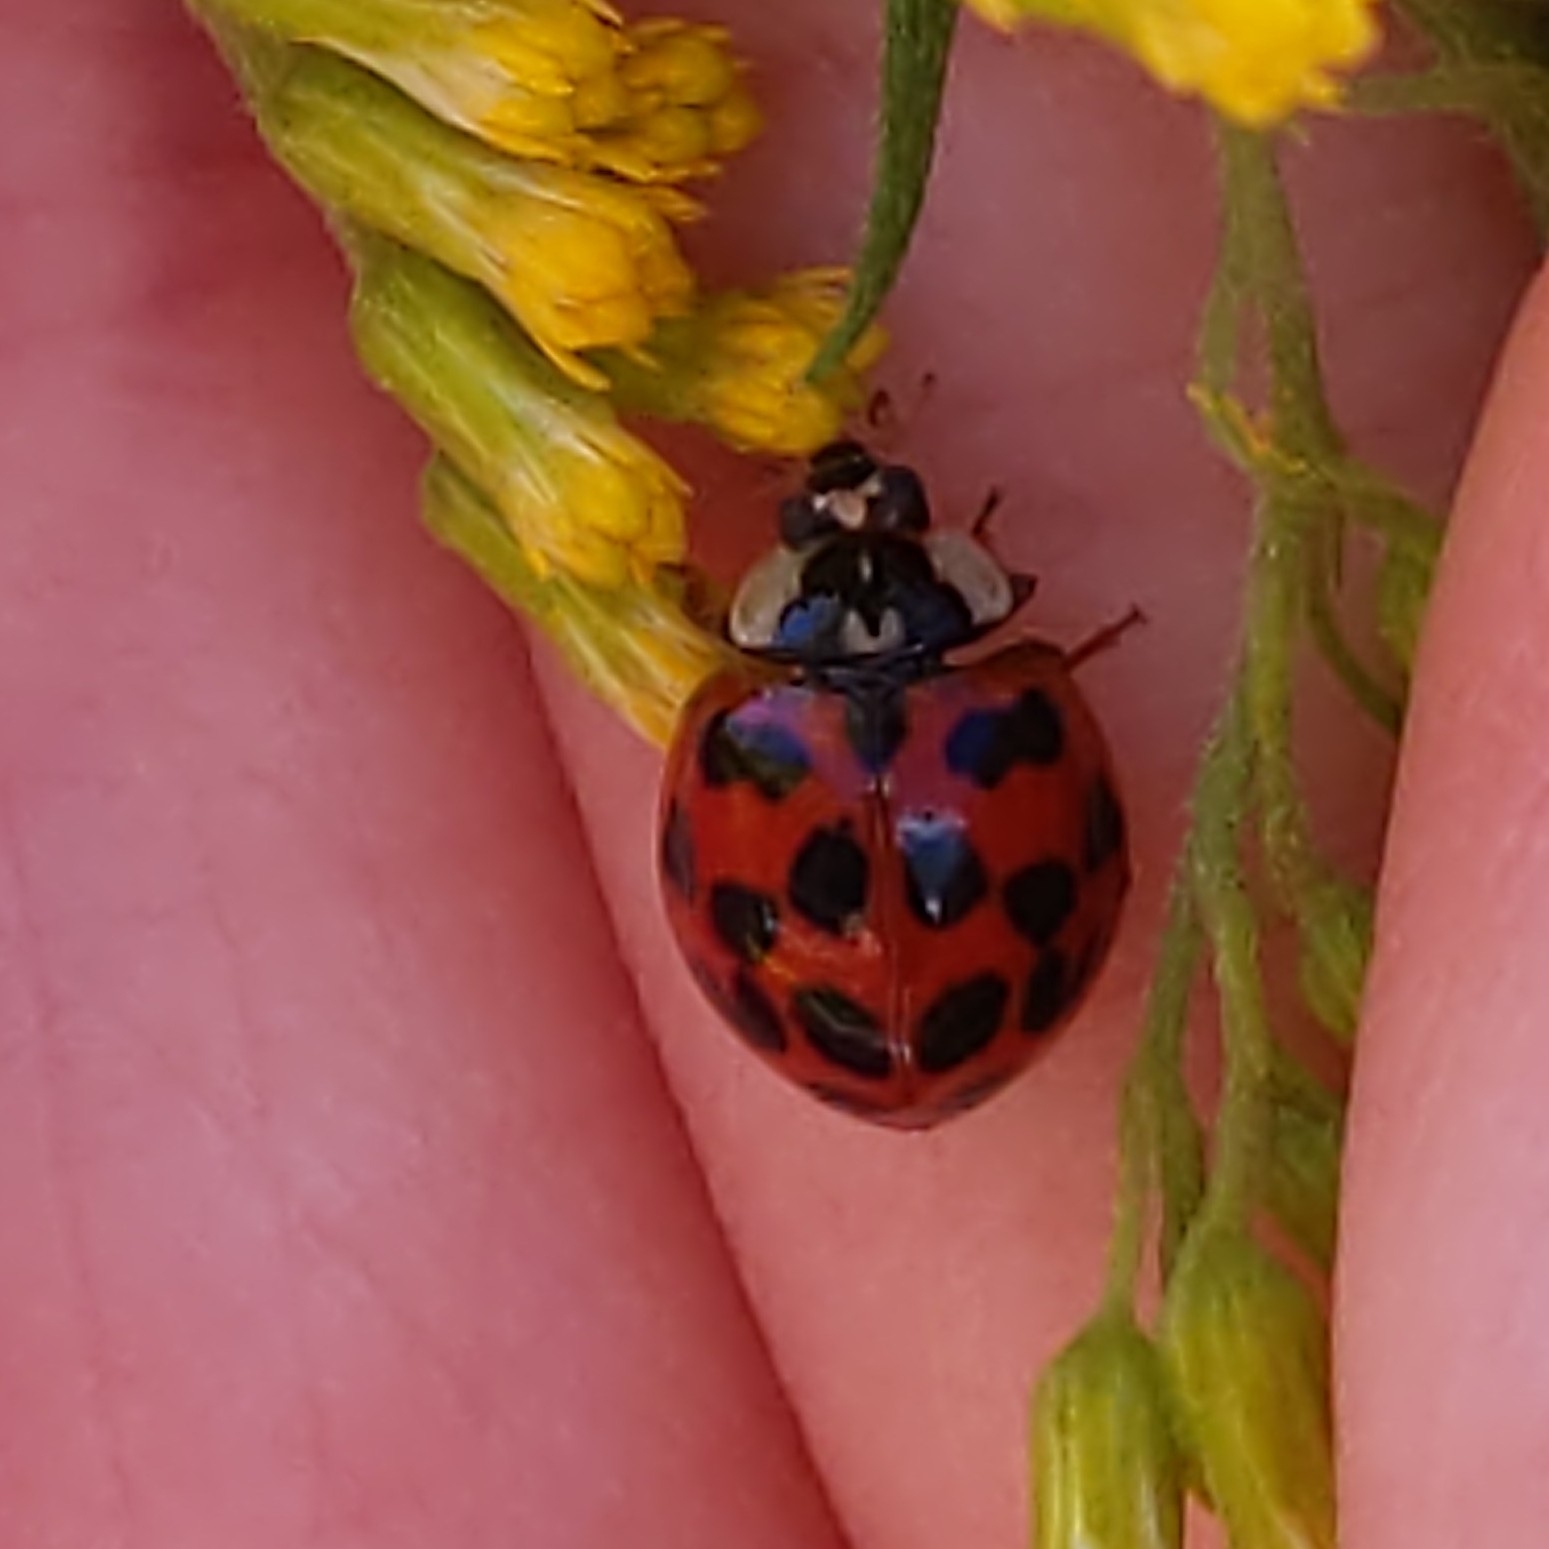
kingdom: Animalia
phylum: Arthropoda
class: Insecta
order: Coleoptera
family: Coccinellidae
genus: Harmonia
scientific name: Harmonia axyridis
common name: Harlequin ladybird
